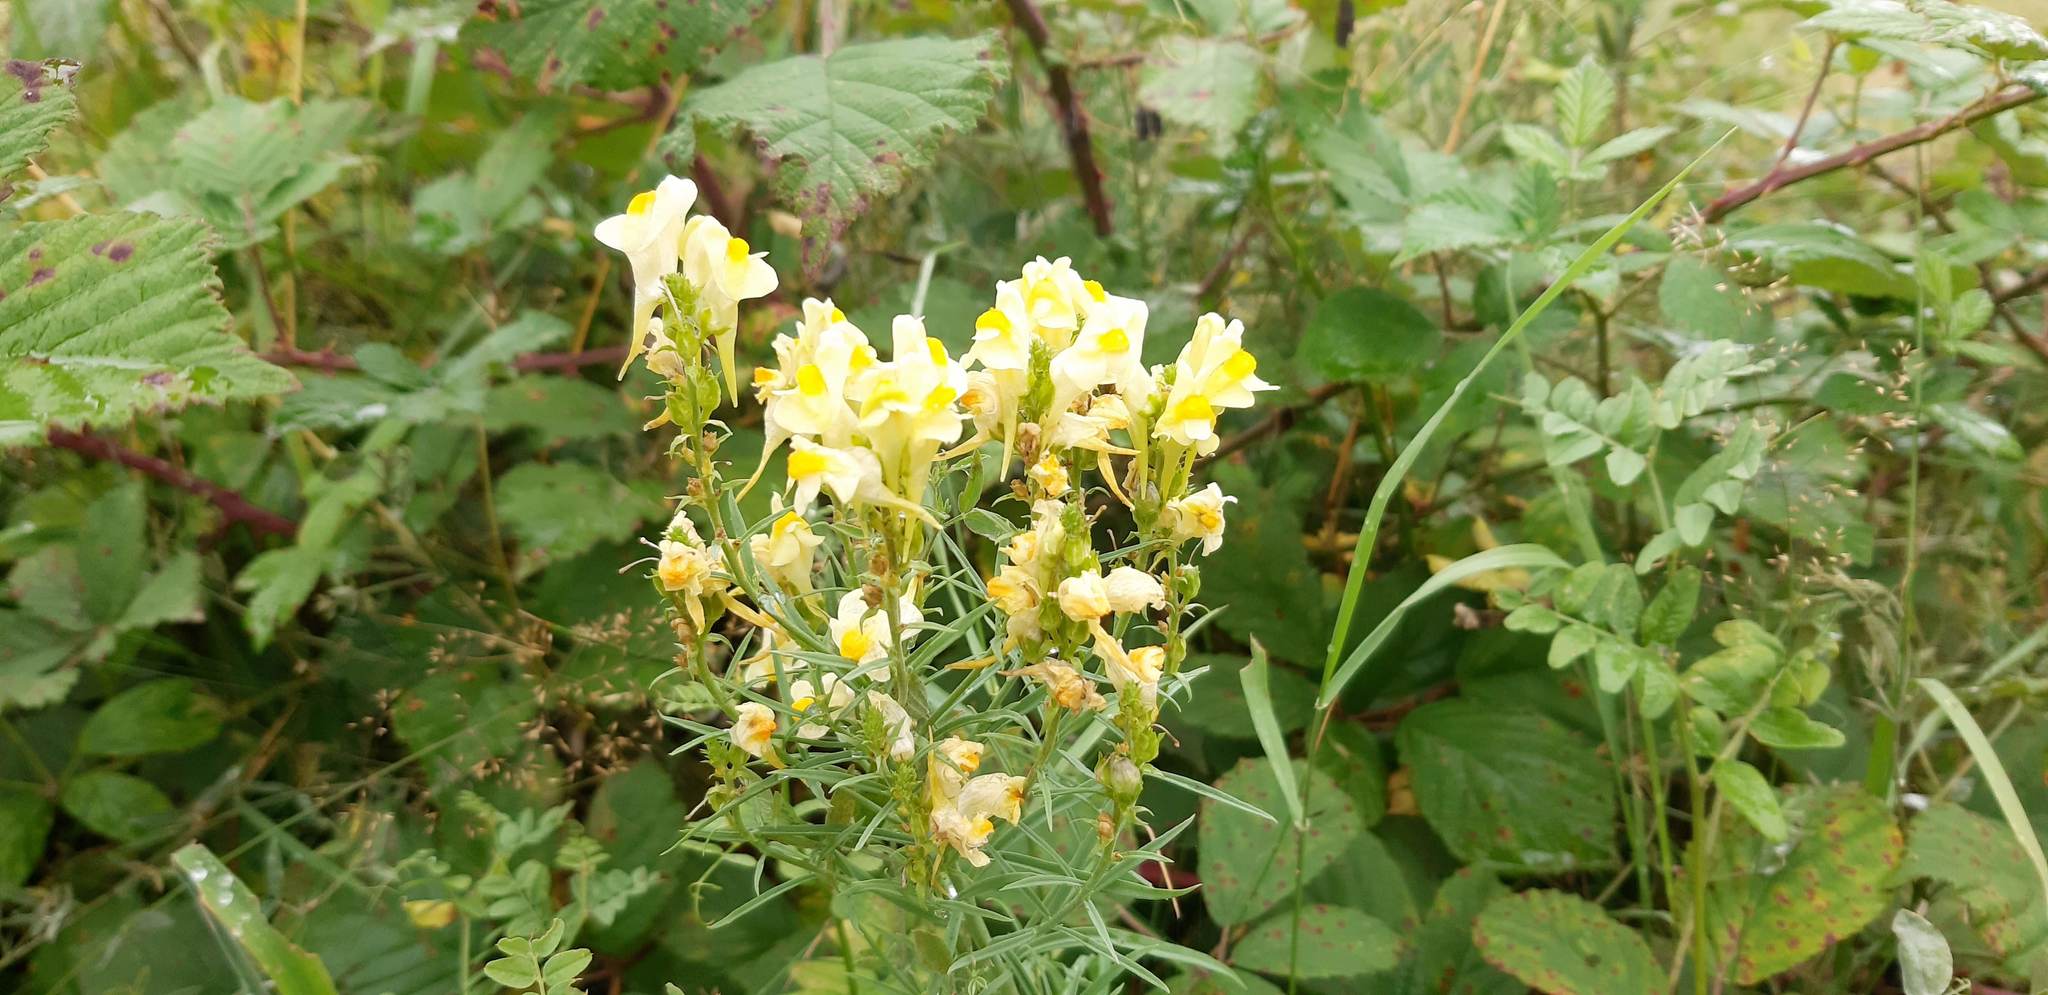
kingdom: Plantae
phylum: Tracheophyta
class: Magnoliopsida
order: Lamiales
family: Plantaginaceae
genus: Linaria
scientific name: Linaria vulgaris
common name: Butter and eggs
